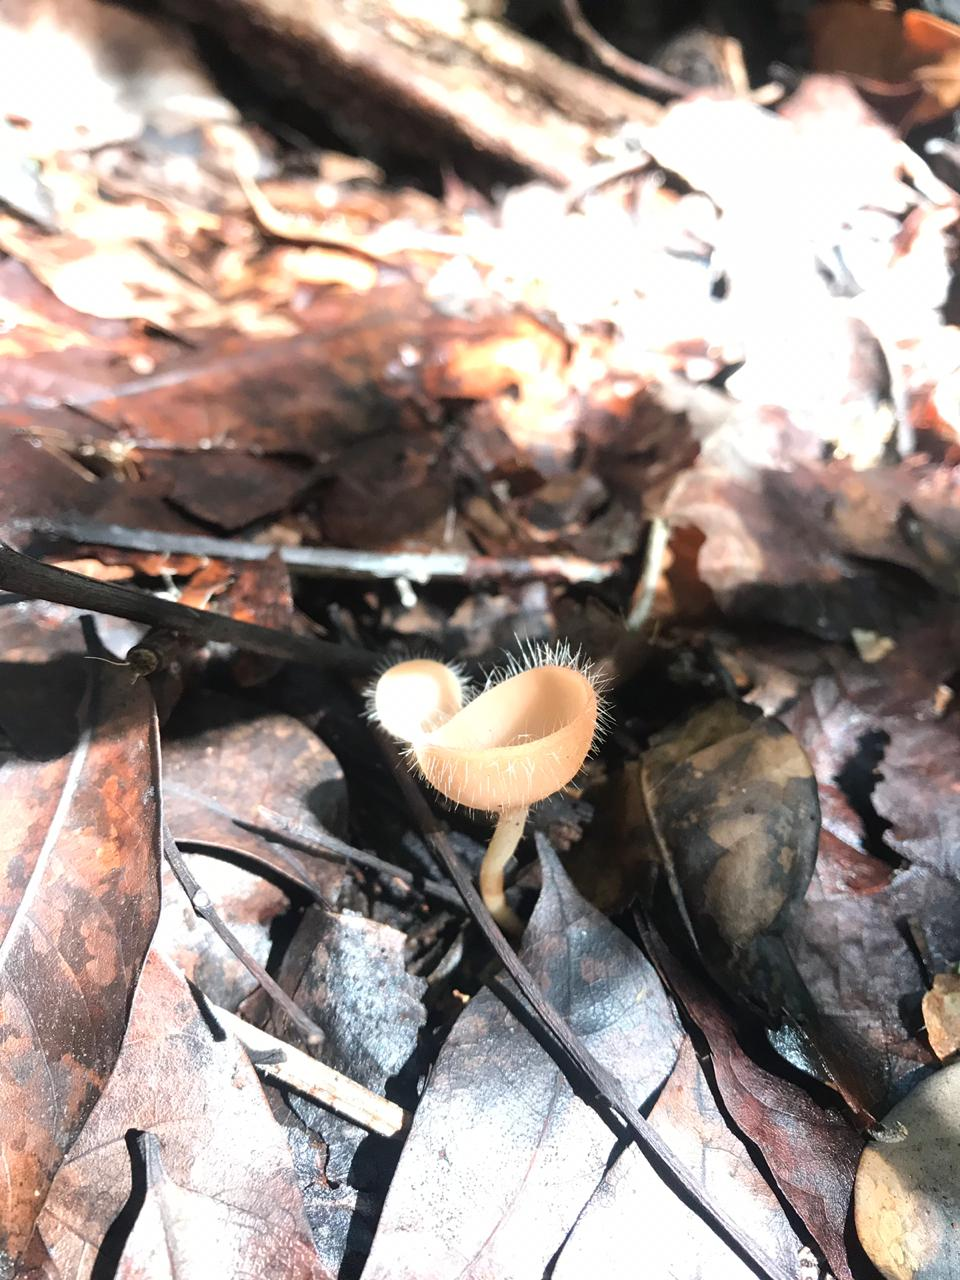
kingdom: Fungi
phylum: Ascomycota
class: Pezizomycetes
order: Pezizales
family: Sarcoscyphaceae
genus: Cookeina
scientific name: Cookeina tricholoma
